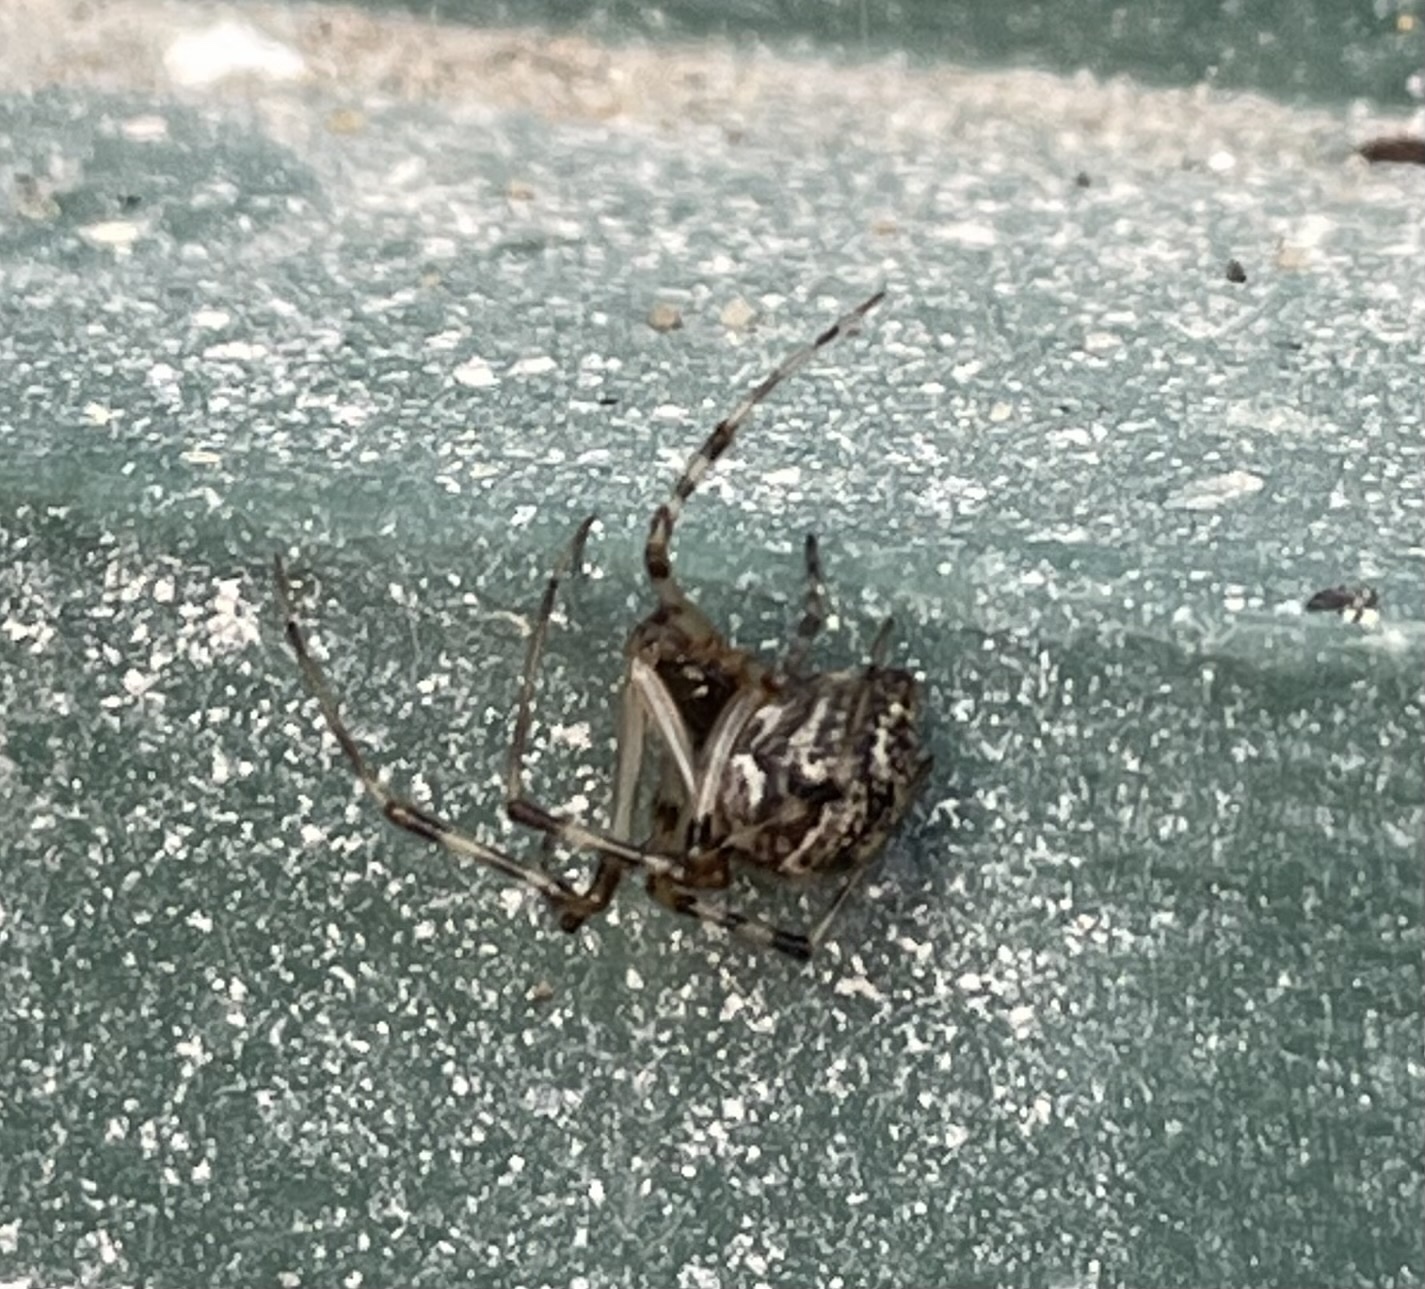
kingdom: Animalia
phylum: Arthropoda
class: Arachnida
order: Araneae
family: Theridiidae
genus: Parasteatoda
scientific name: Parasteatoda tepidariorum
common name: Common house spider
